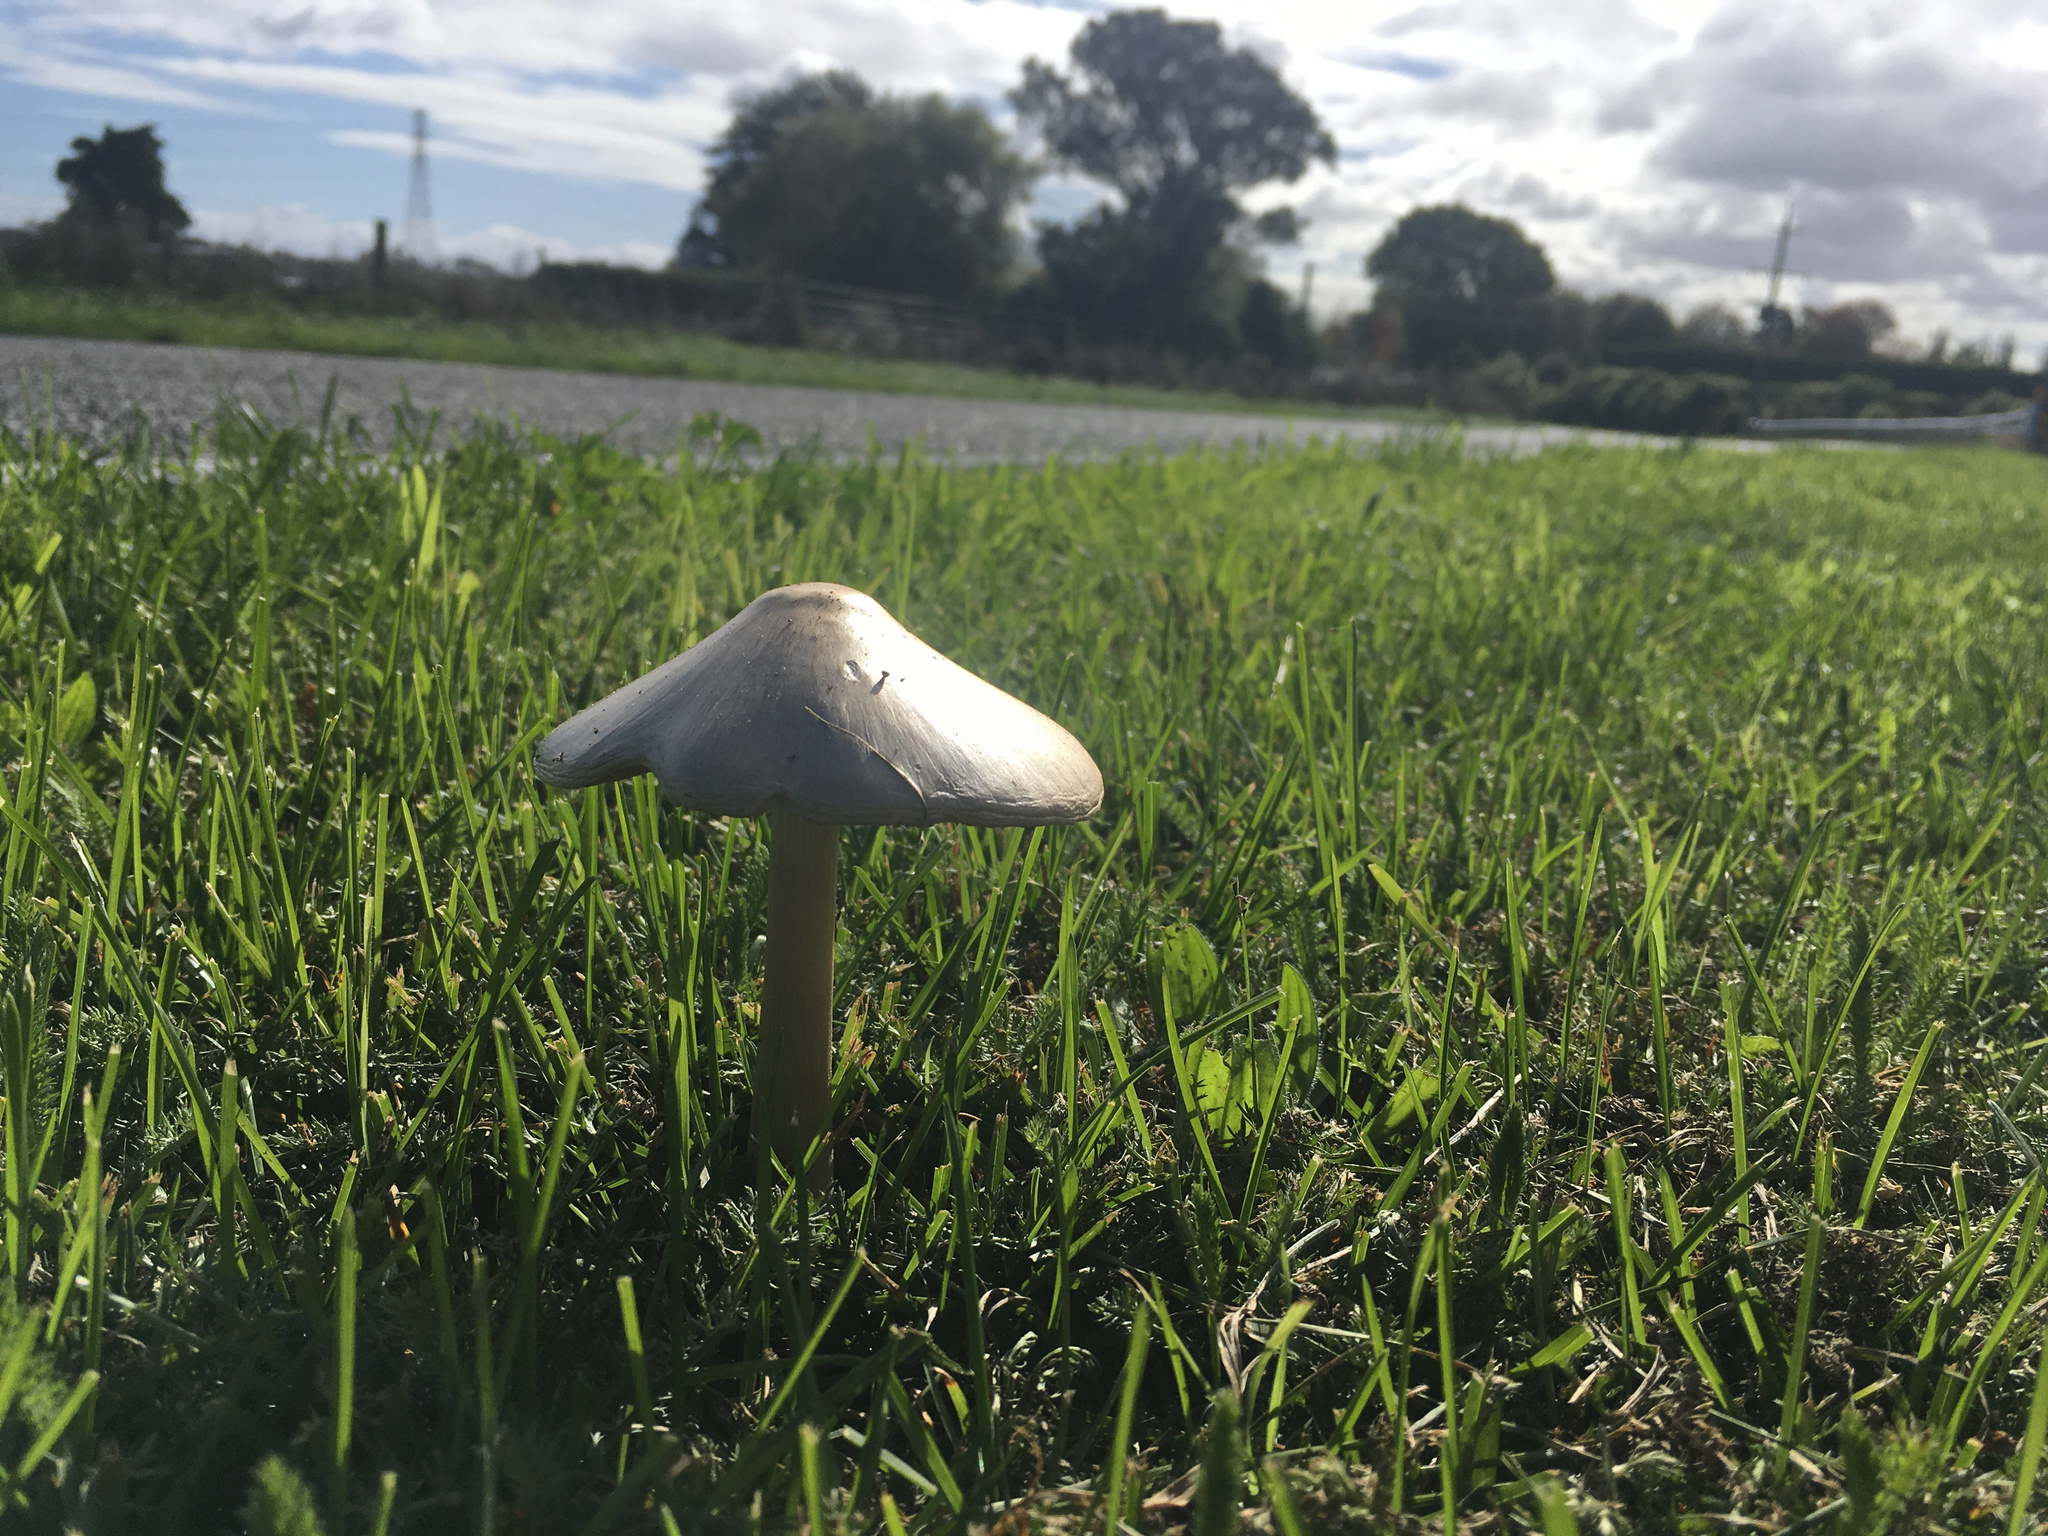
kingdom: Fungi
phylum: Basidiomycota
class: Agaricomycetes
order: Agaricales
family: Pluteaceae
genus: Volvopluteus
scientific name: Volvopluteus gloiocephalus
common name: Stubble rosegill
